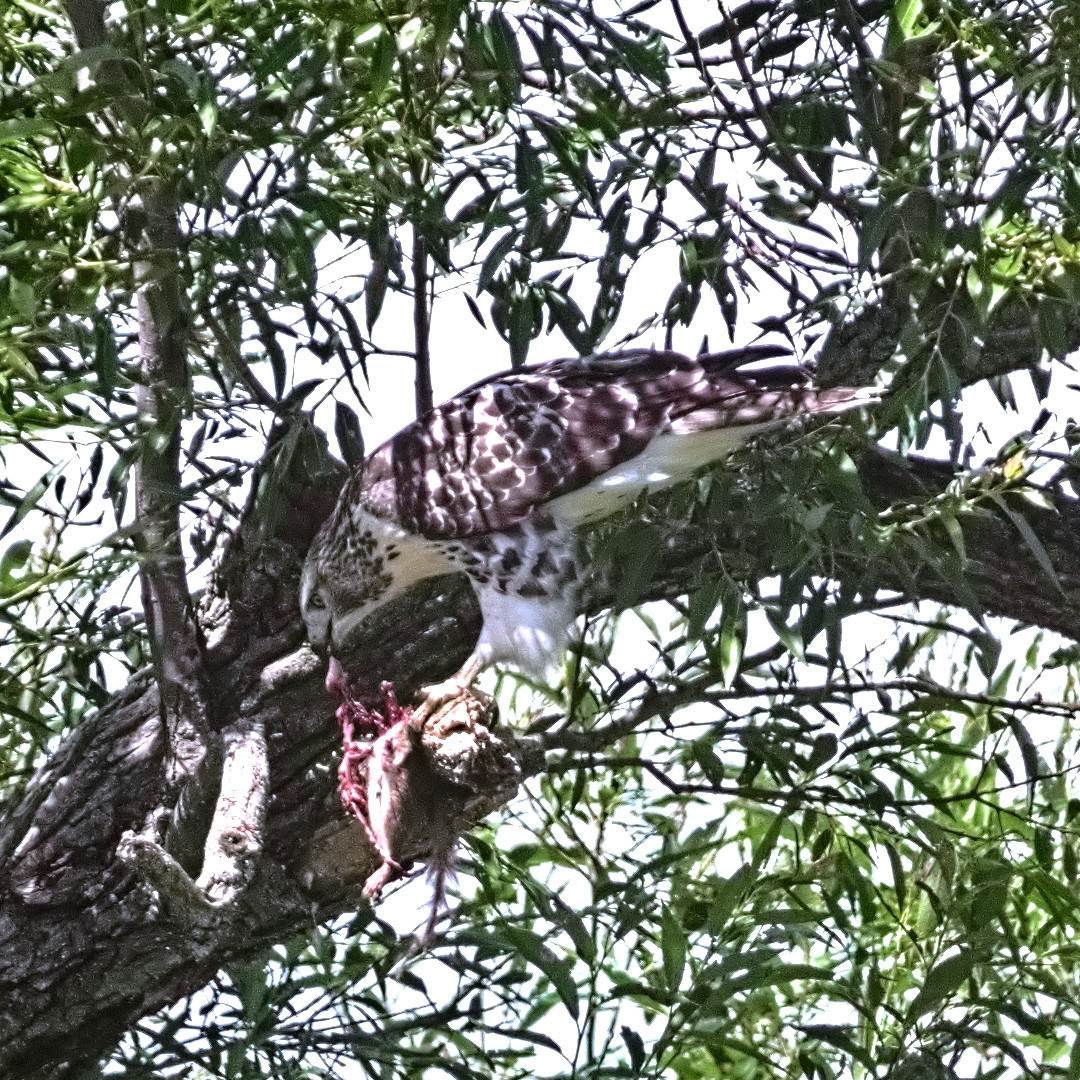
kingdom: Animalia
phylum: Chordata
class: Aves
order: Accipitriformes
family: Accipitridae
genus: Buteo
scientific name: Buteo jamaicensis
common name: Red-tailed hawk
